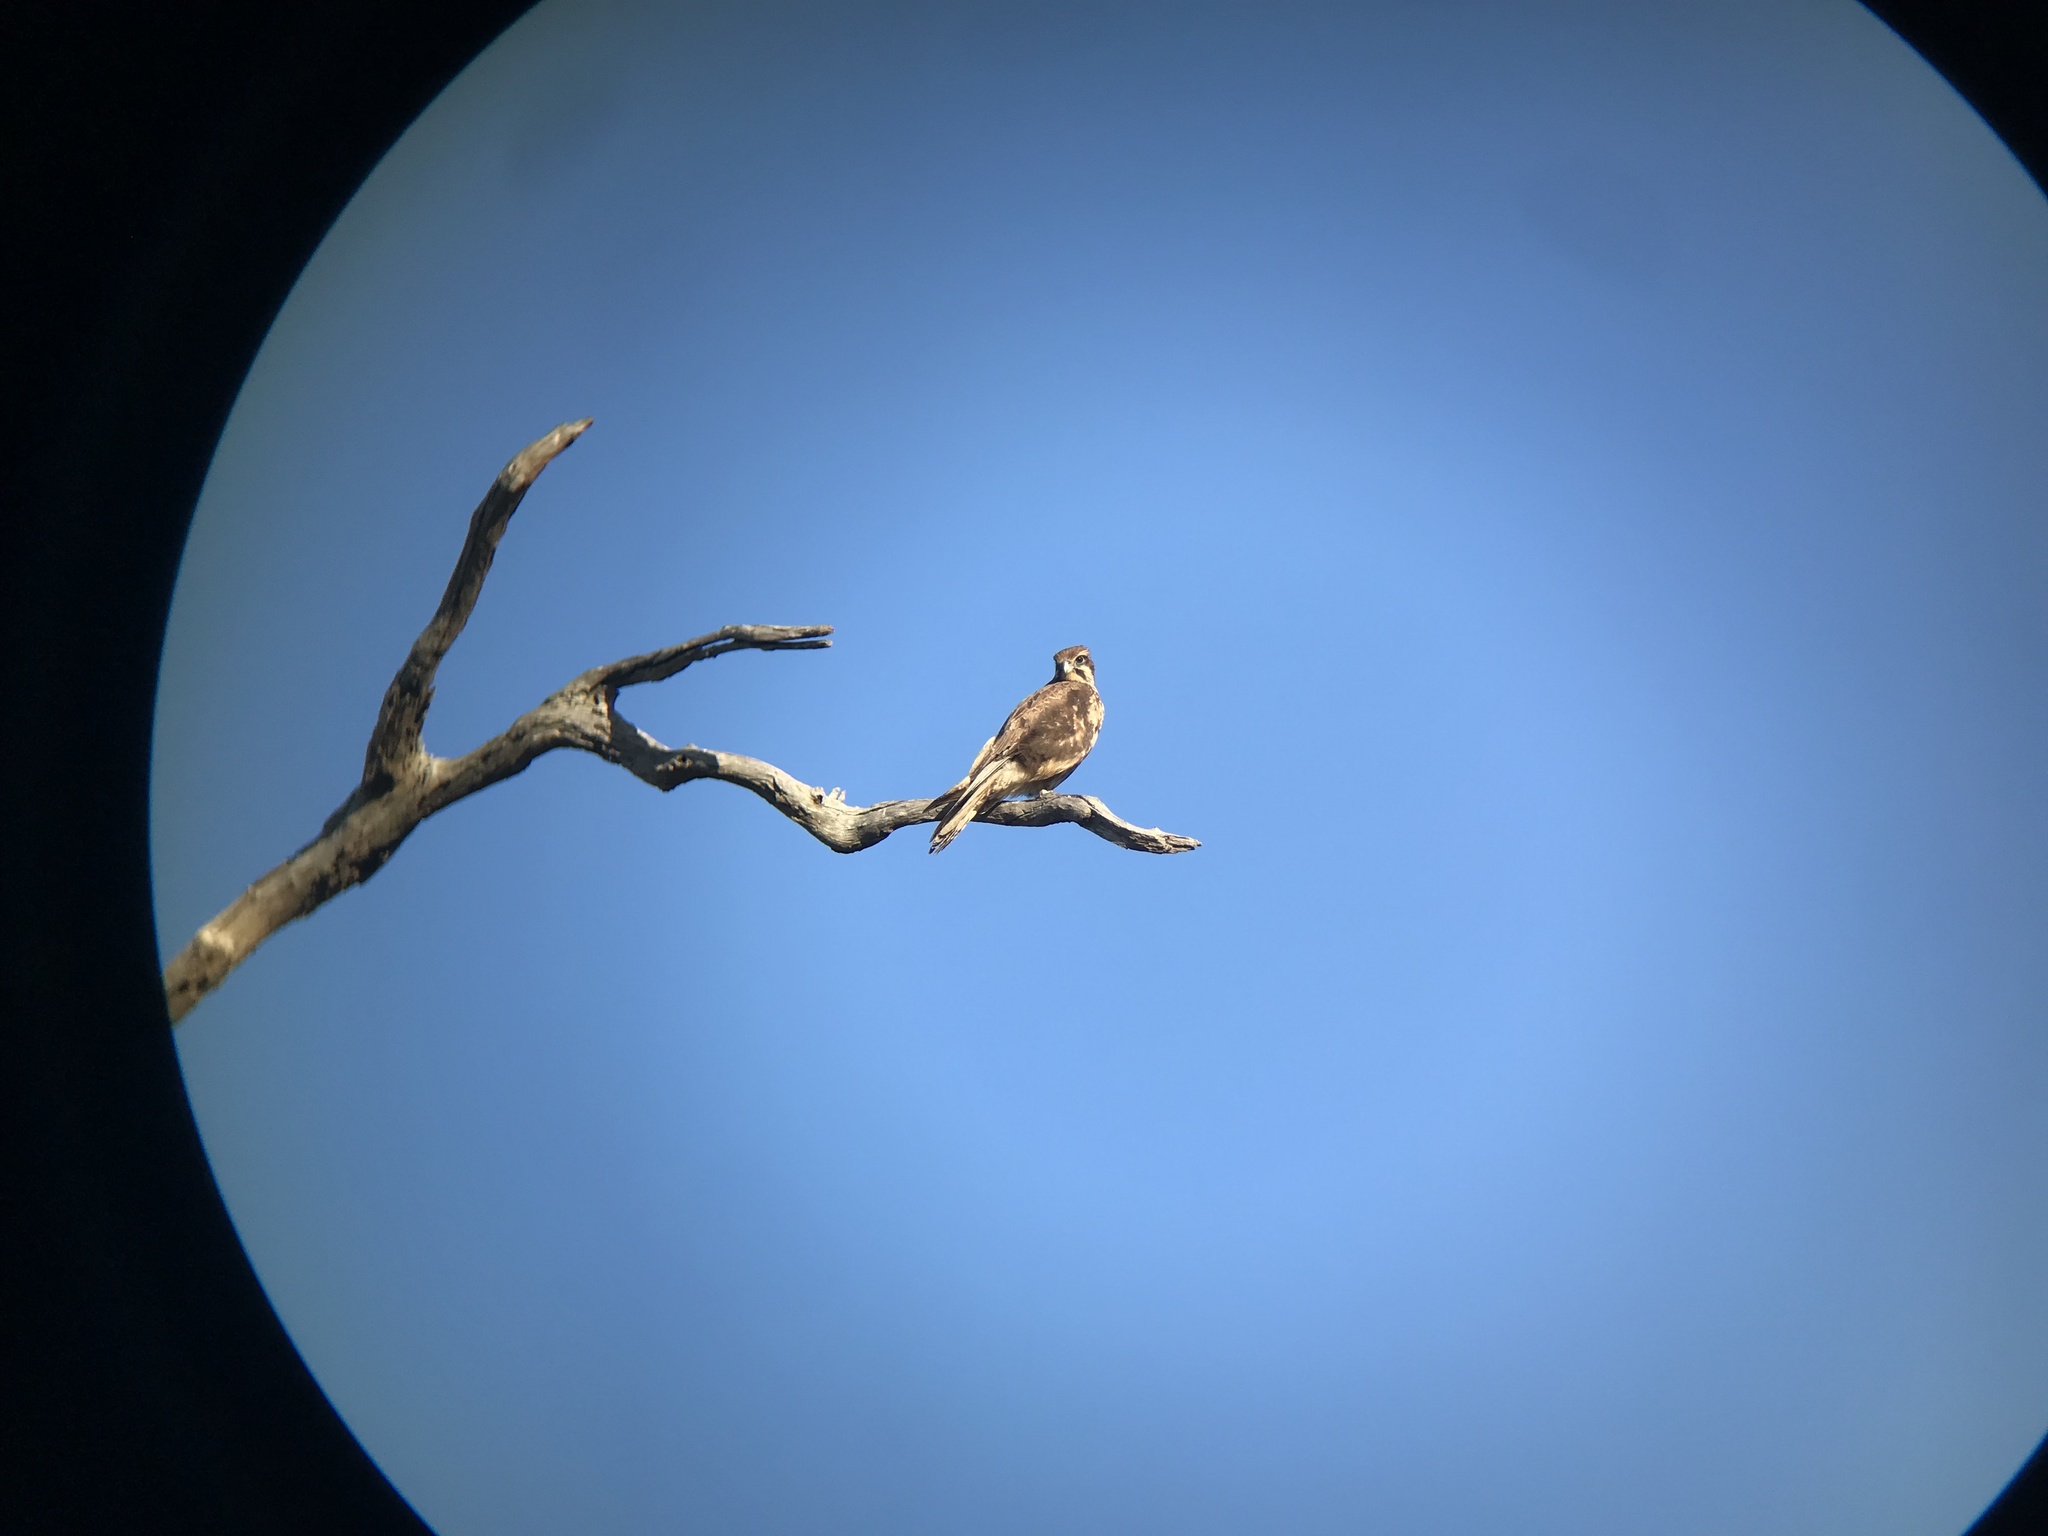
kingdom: Animalia
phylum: Chordata
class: Aves
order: Falconiformes
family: Falconidae
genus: Falco
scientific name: Falco berigora
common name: Brown falcon
